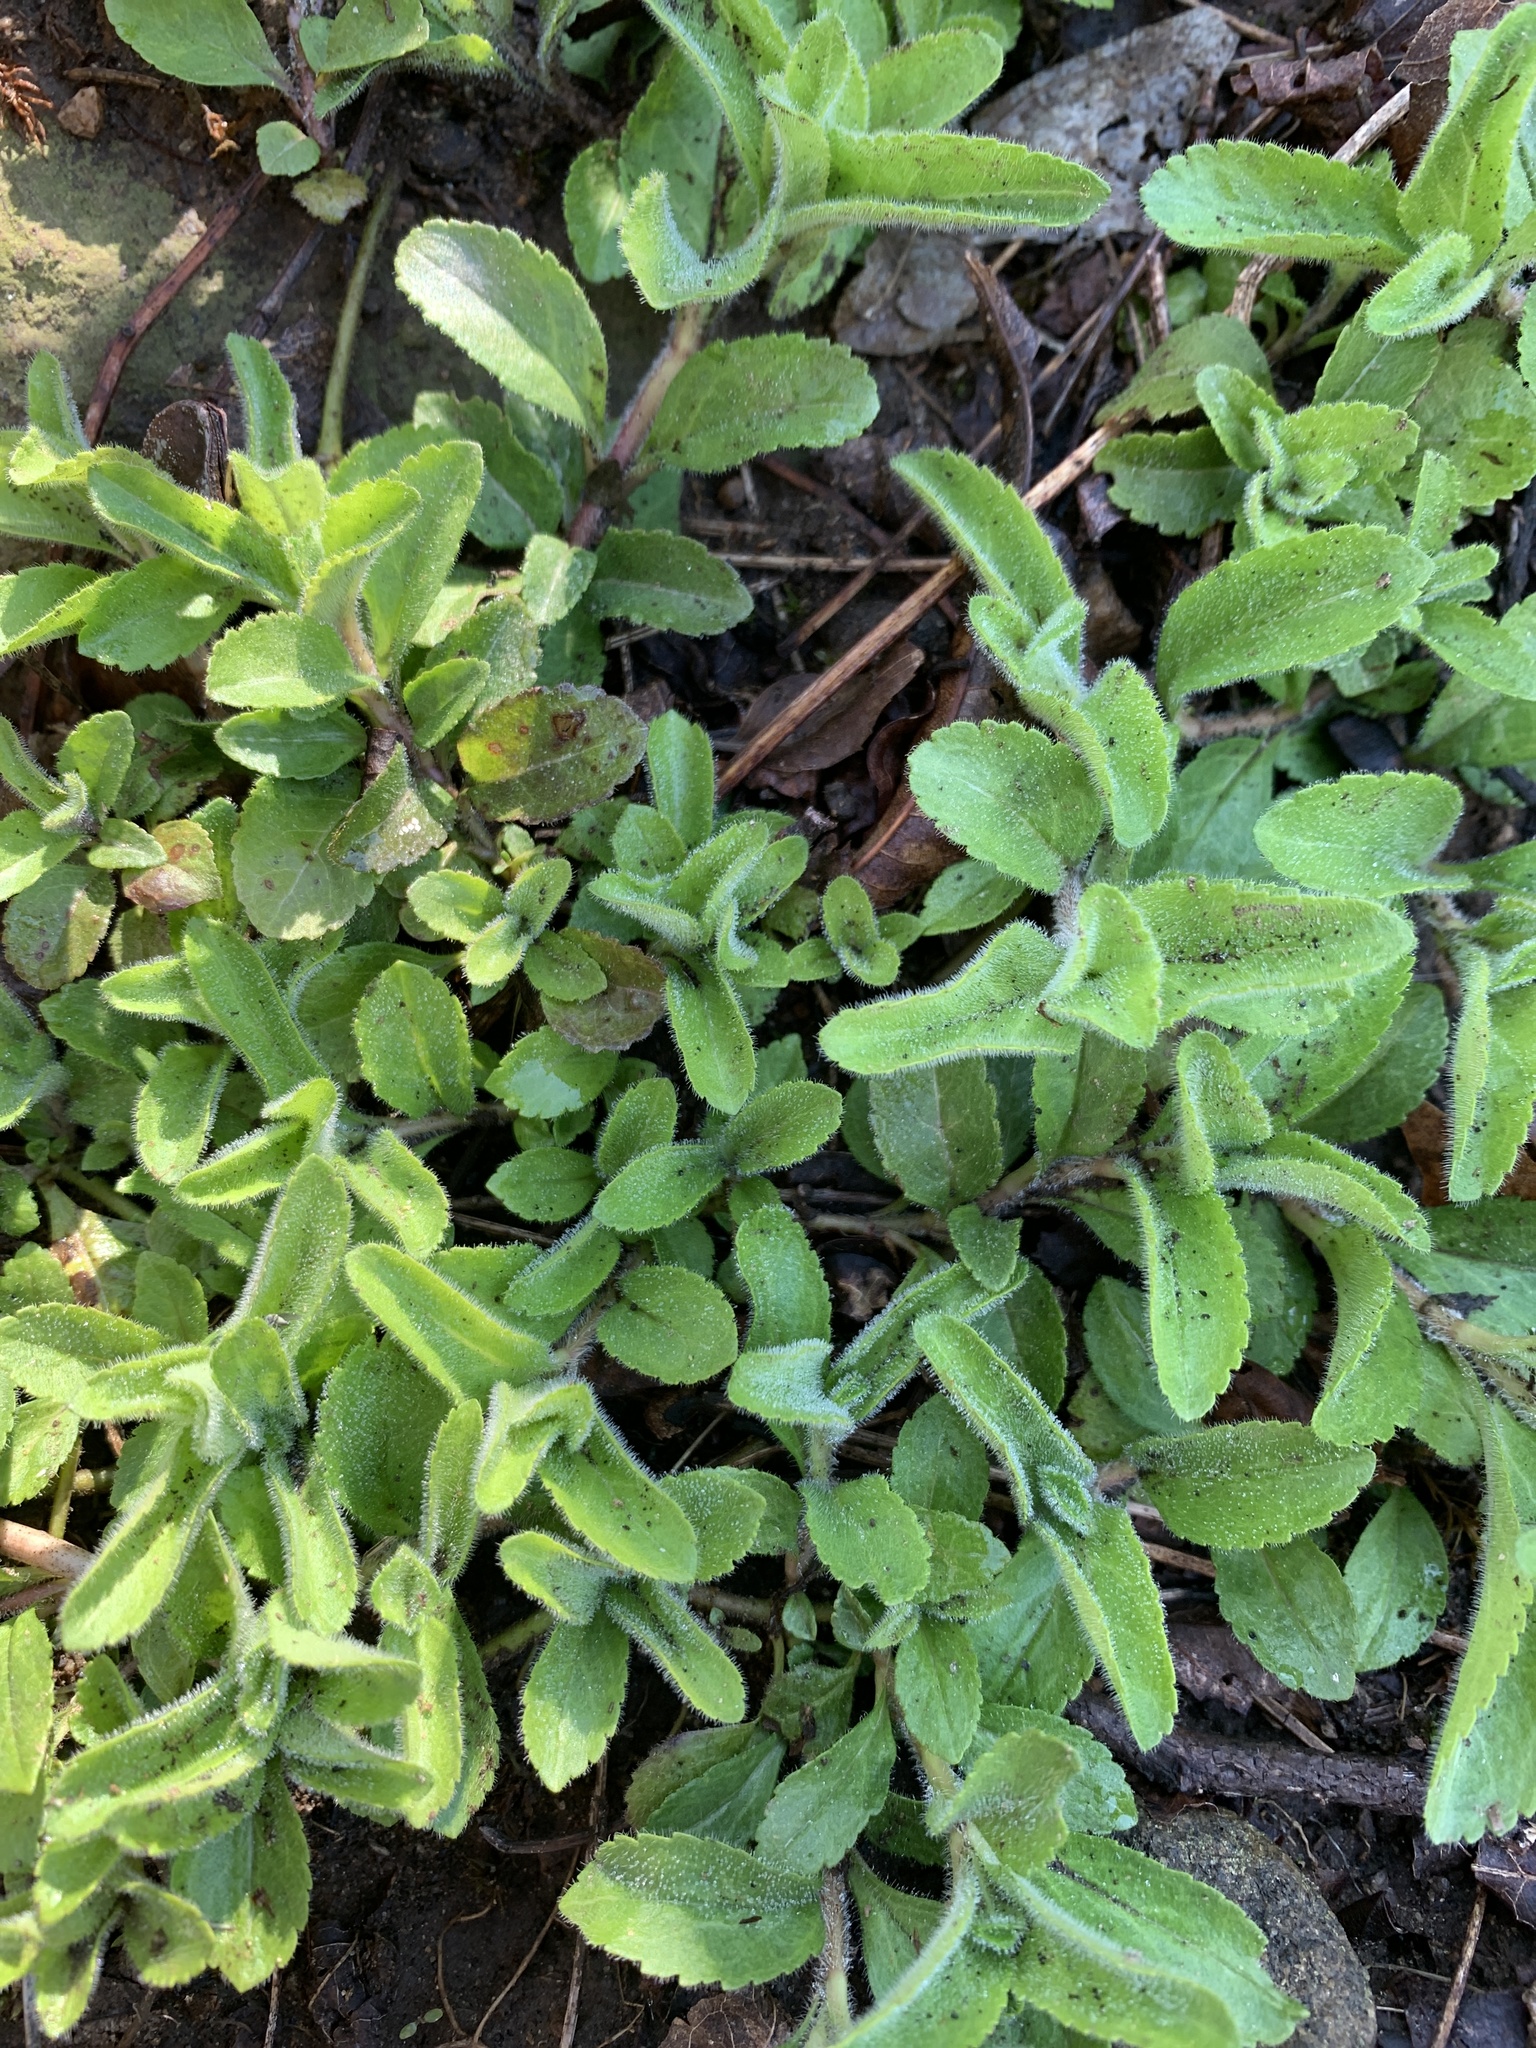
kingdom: Plantae
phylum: Tracheophyta
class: Magnoliopsida
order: Lamiales
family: Plantaginaceae
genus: Veronica
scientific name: Veronica officinalis
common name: Common speedwell
